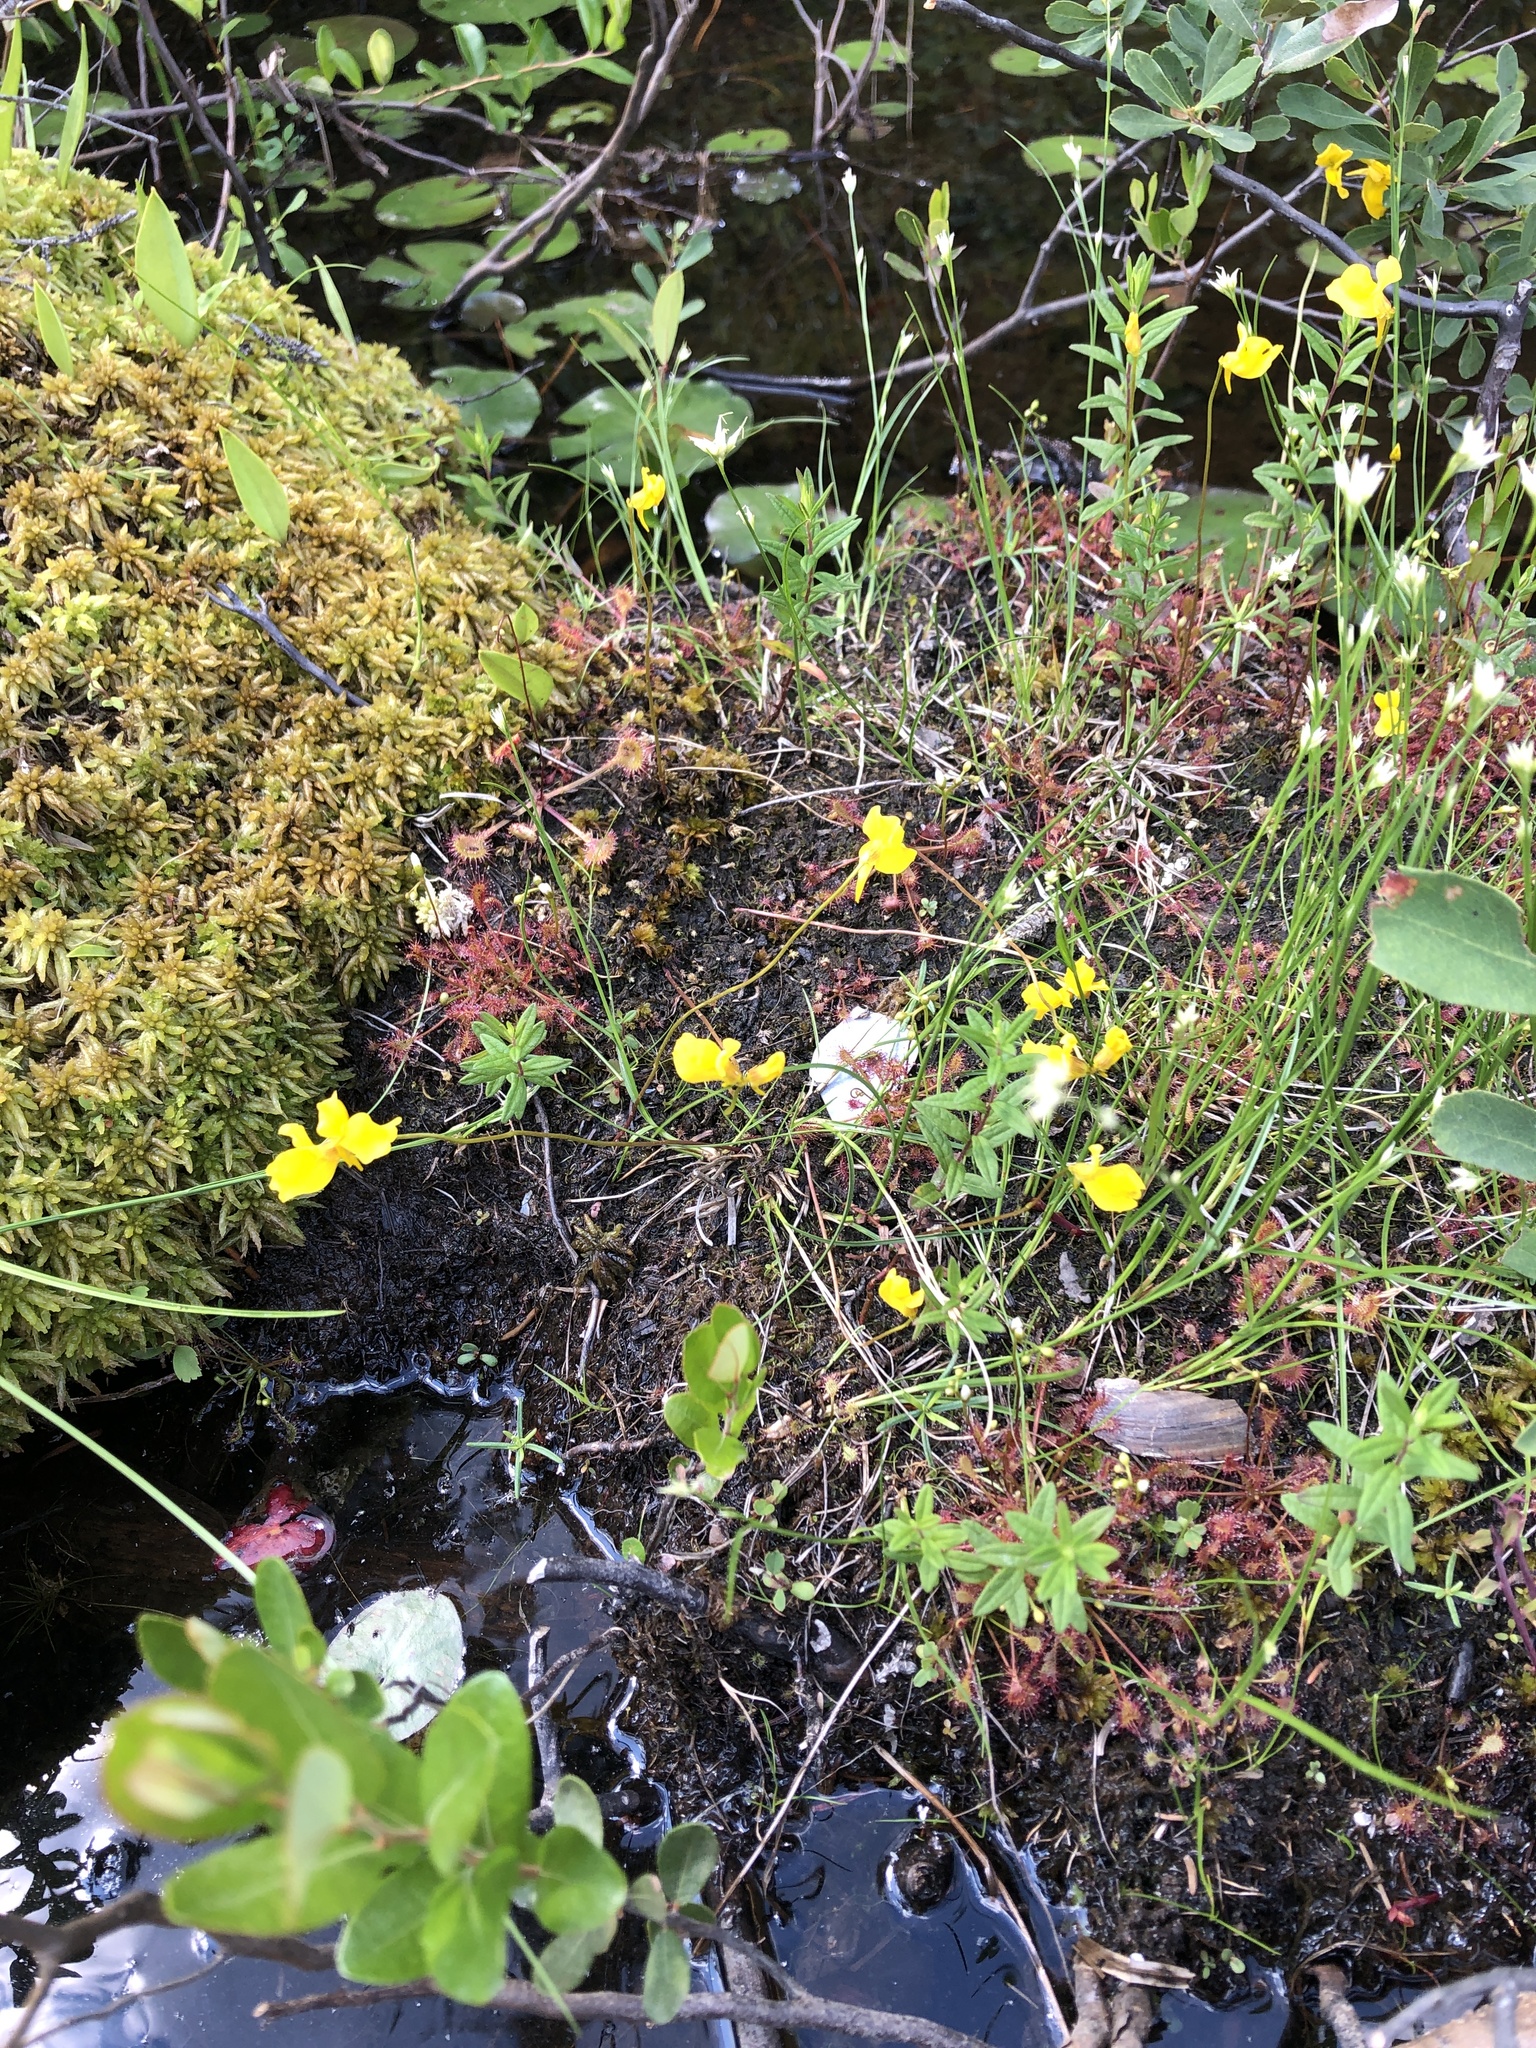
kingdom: Plantae
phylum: Tracheophyta
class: Magnoliopsida
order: Lamiales
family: Lentibulariaceae
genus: Utricularia
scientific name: Utricularia cornuta
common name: Horned bladderwort
